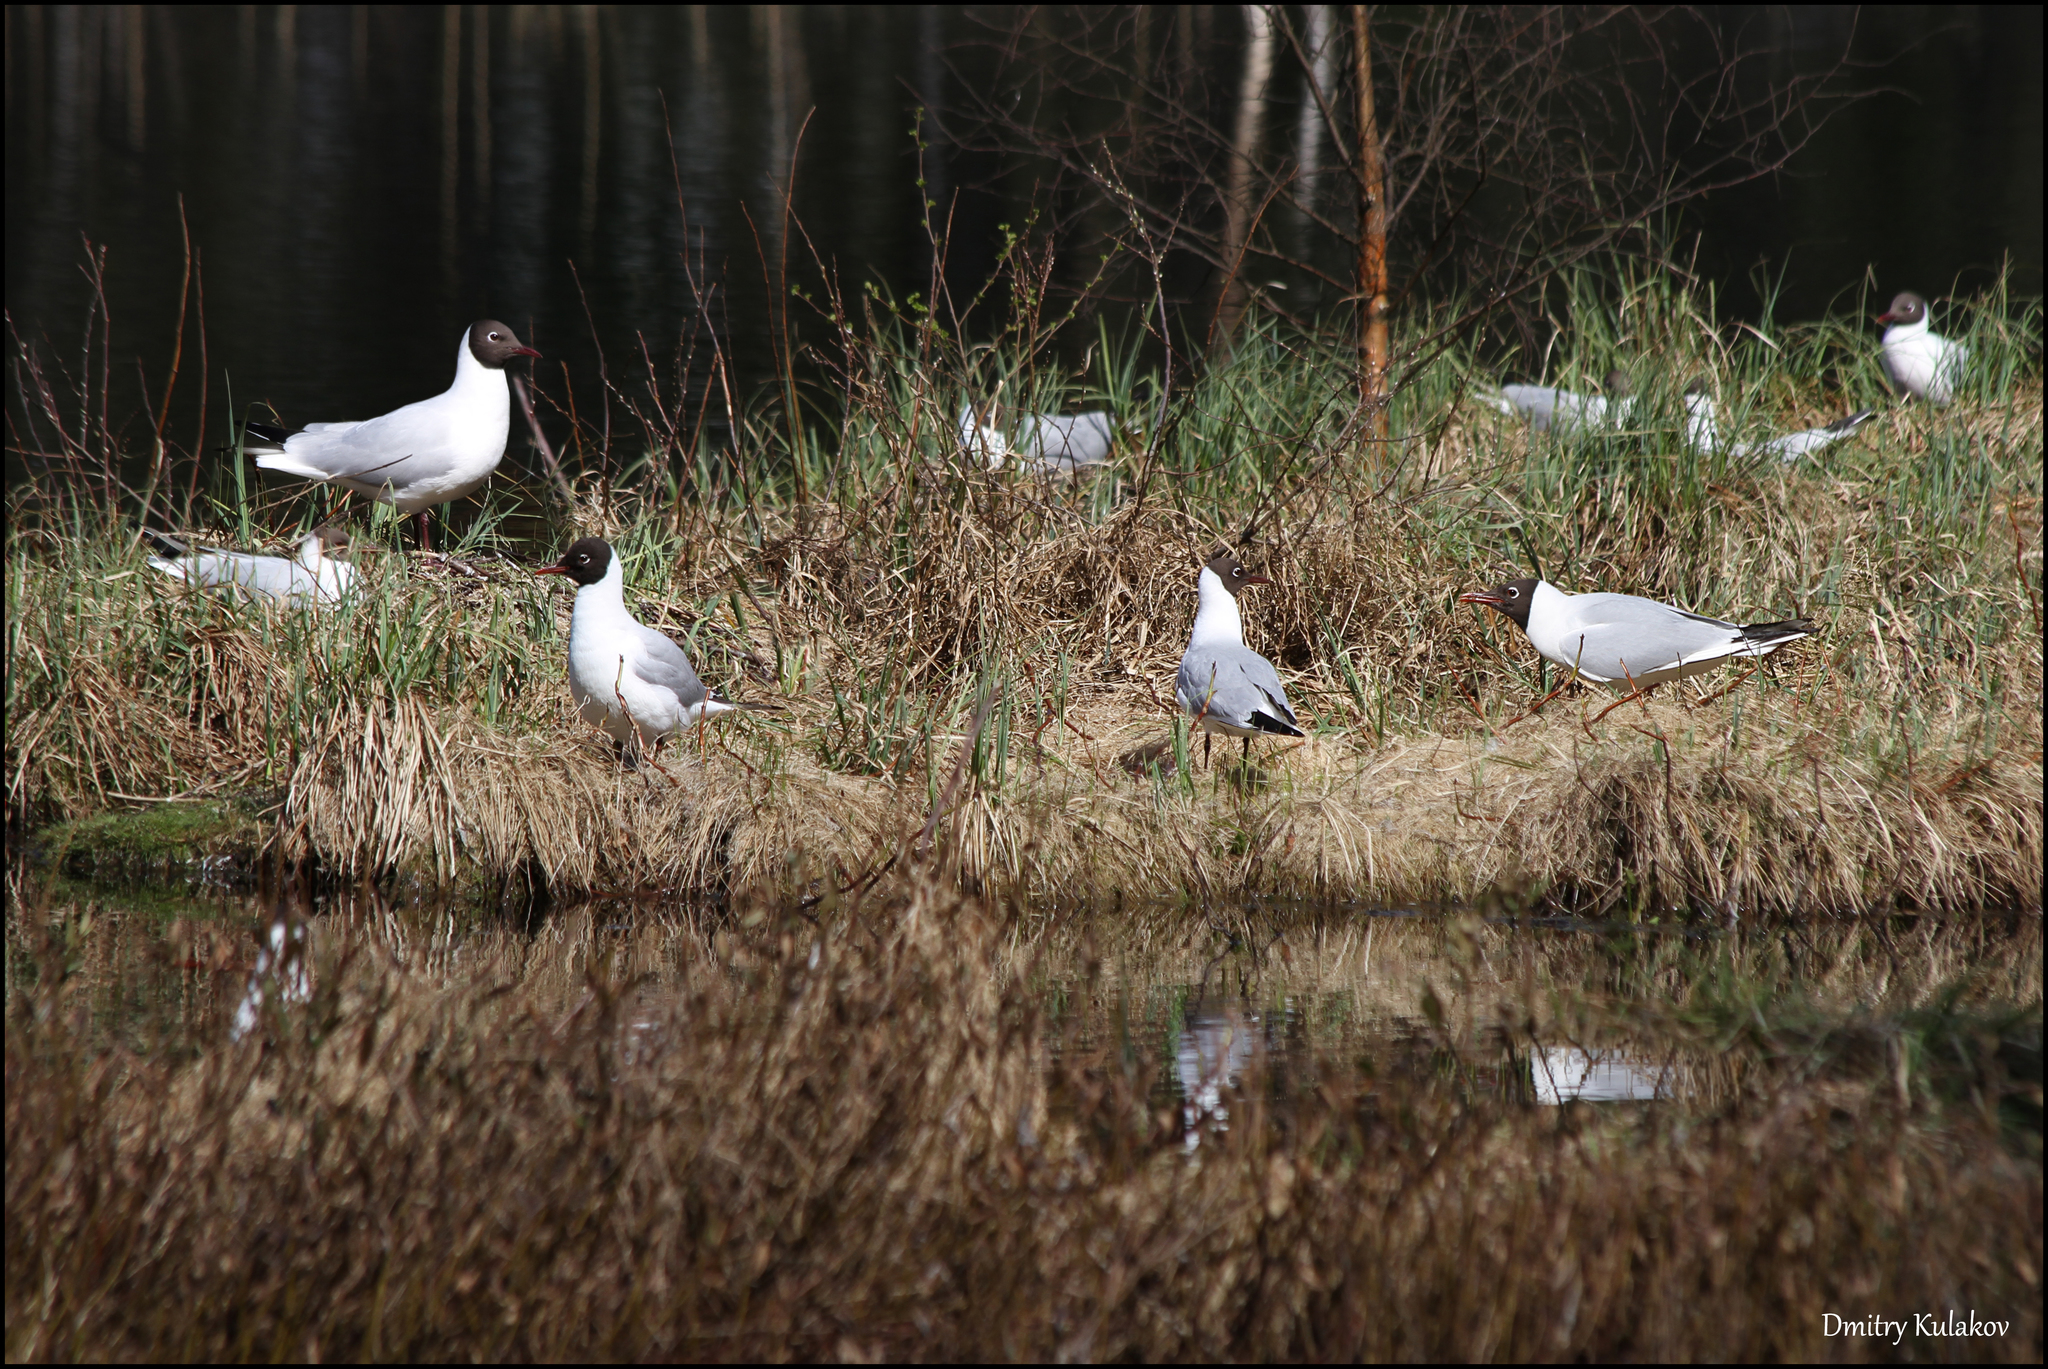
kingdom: Animalia
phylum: Chordata
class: Aves
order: Charadriiformes
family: Laridae
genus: Chroicocephalus
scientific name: Chroicocephalus ridibundus
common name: Black-headed gull
